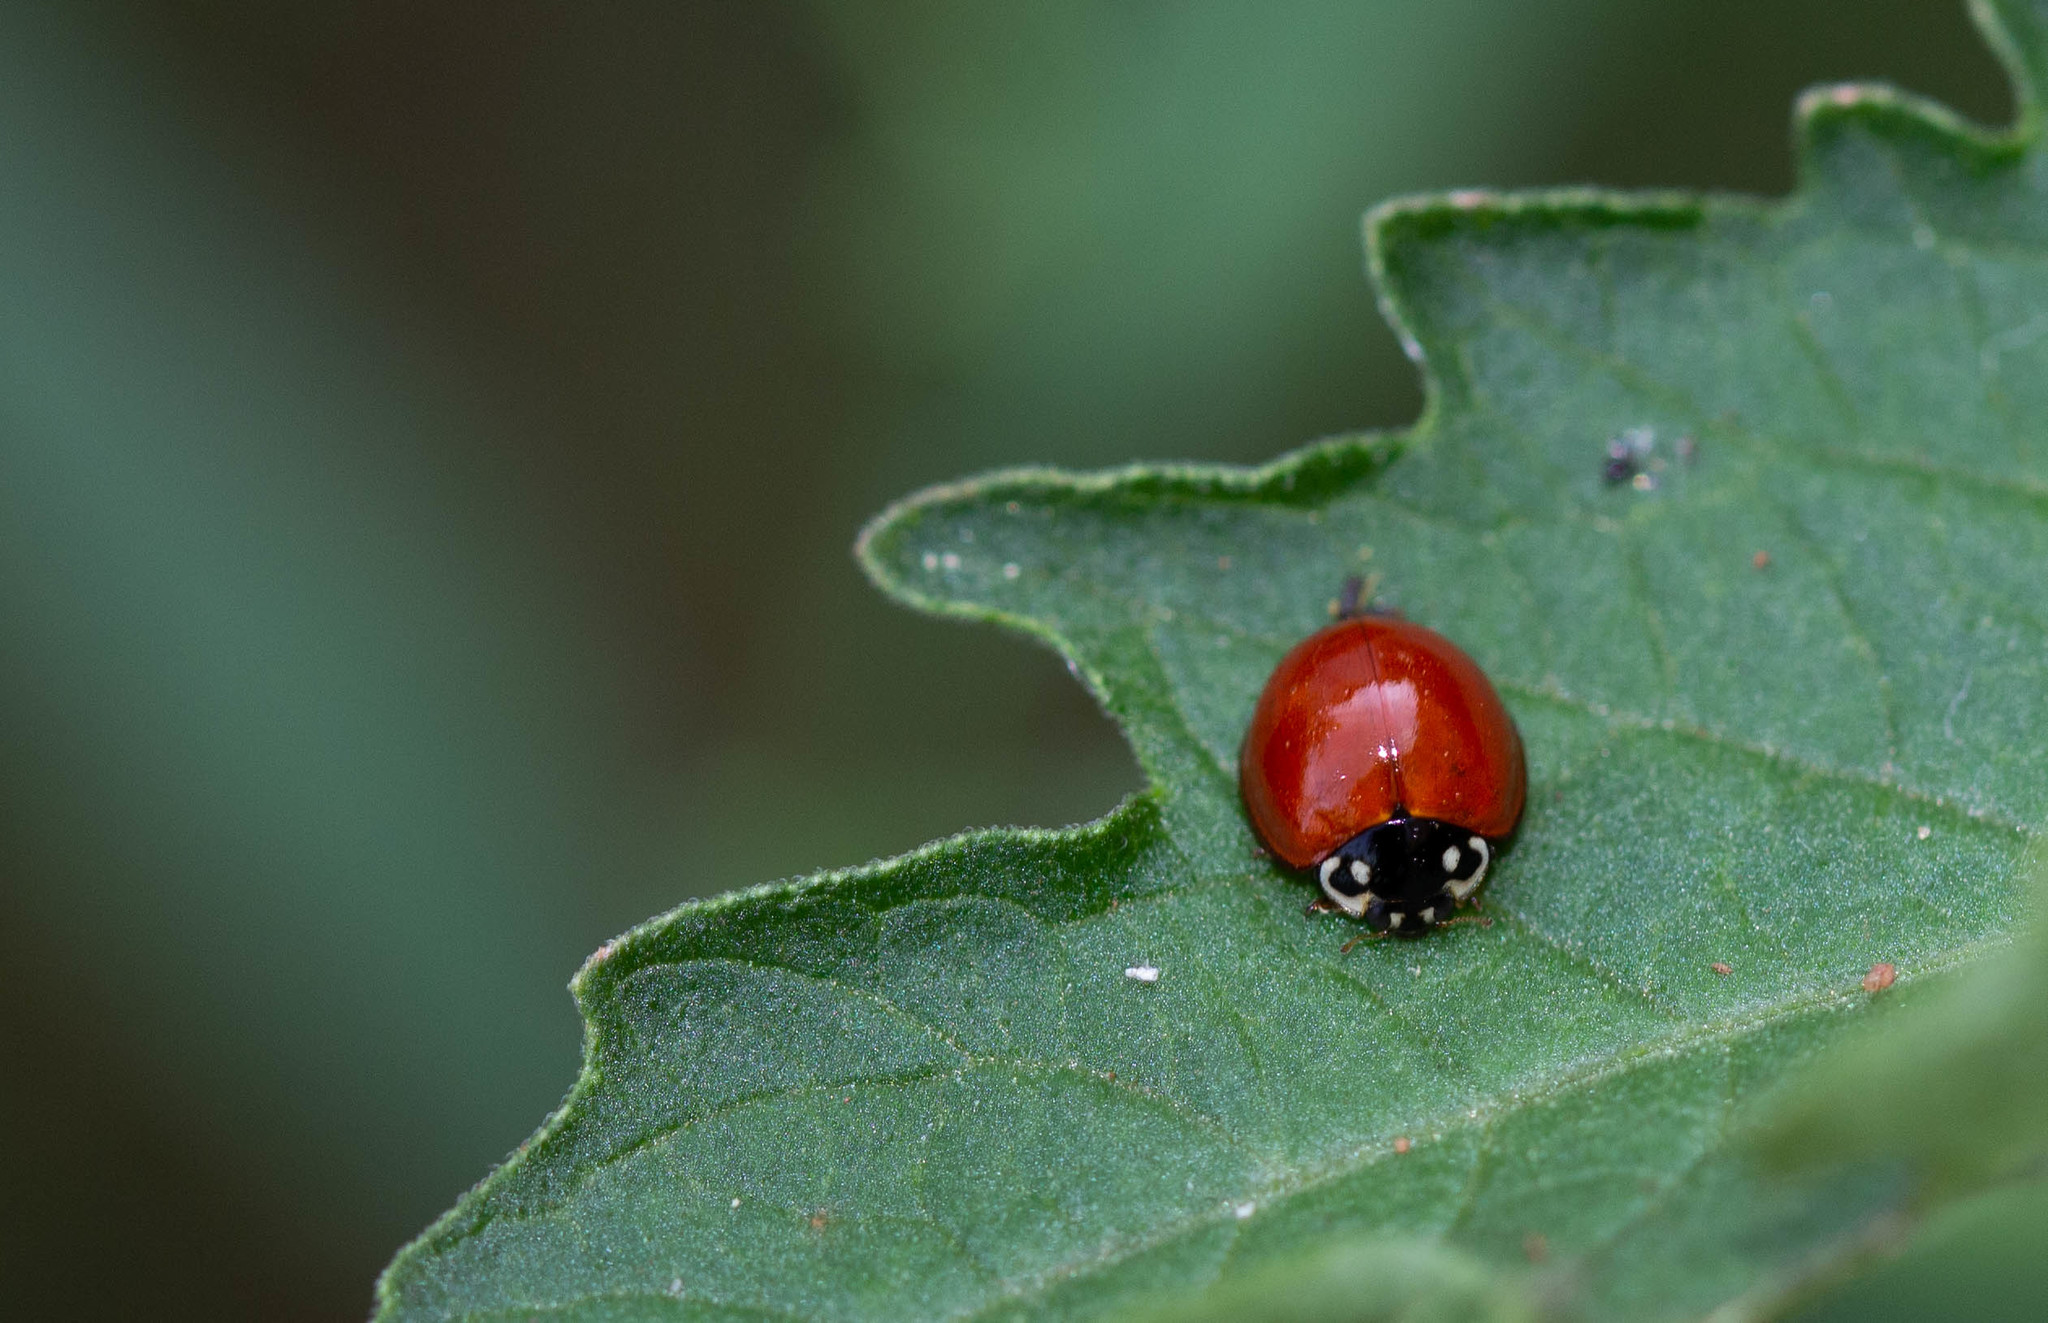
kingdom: Animalia
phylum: Arthropoda
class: Insecta
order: Coleoptera
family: Coccinellidae
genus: Cycloneda
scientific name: Cycloneda sanguinea
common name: Ladybird beetle
